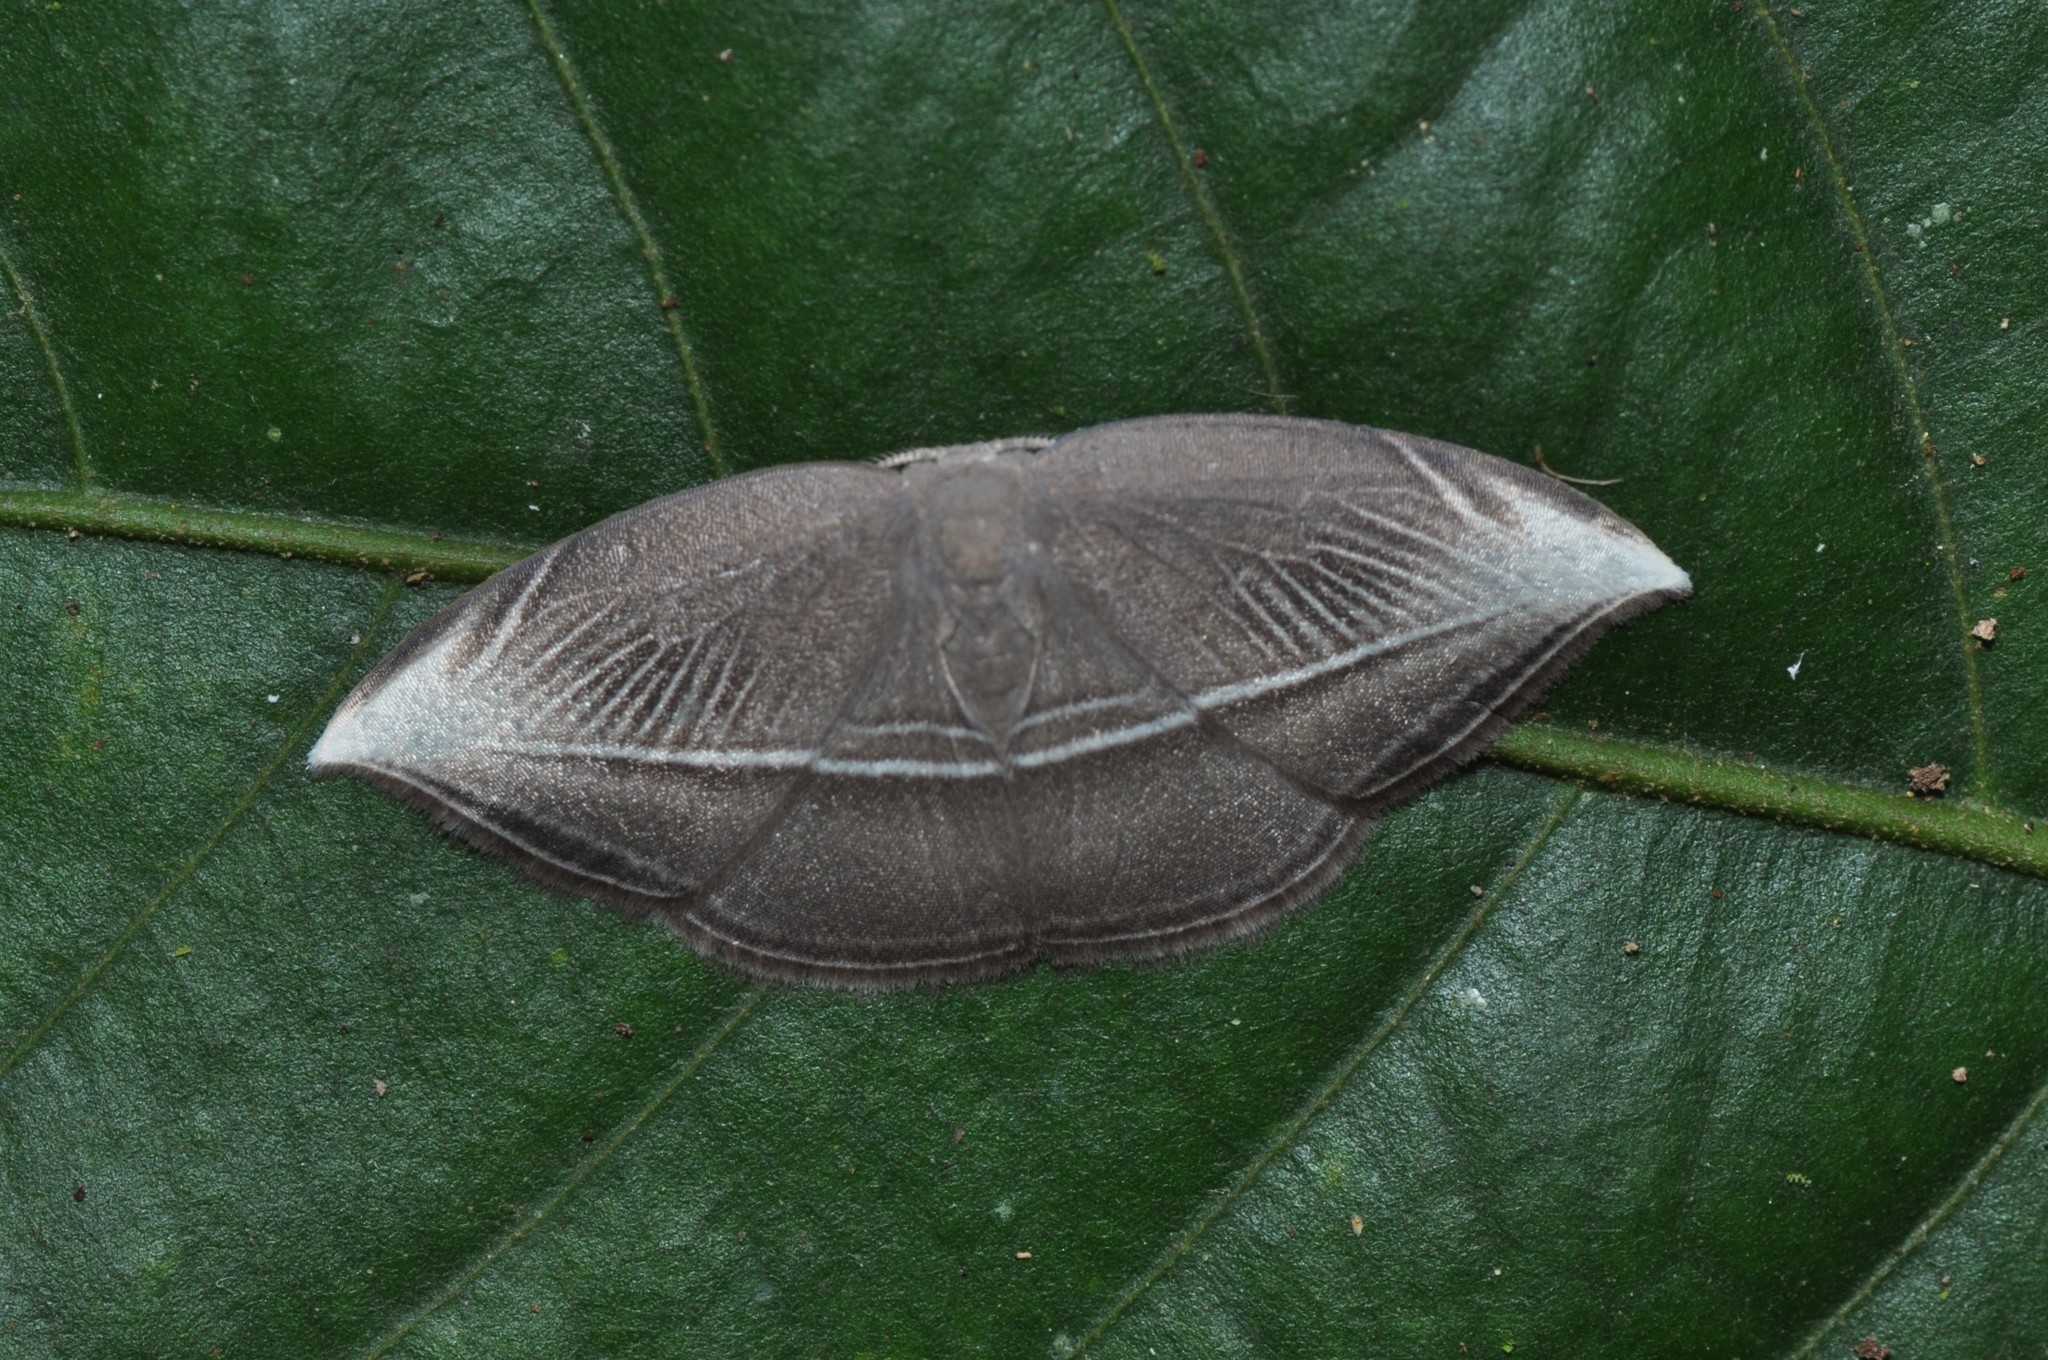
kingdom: Animalia
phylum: Arthropoda
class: Insecta
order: Lepidoptera
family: Drepanidae
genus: Microblepsis
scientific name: Microblepsis leucosticta
